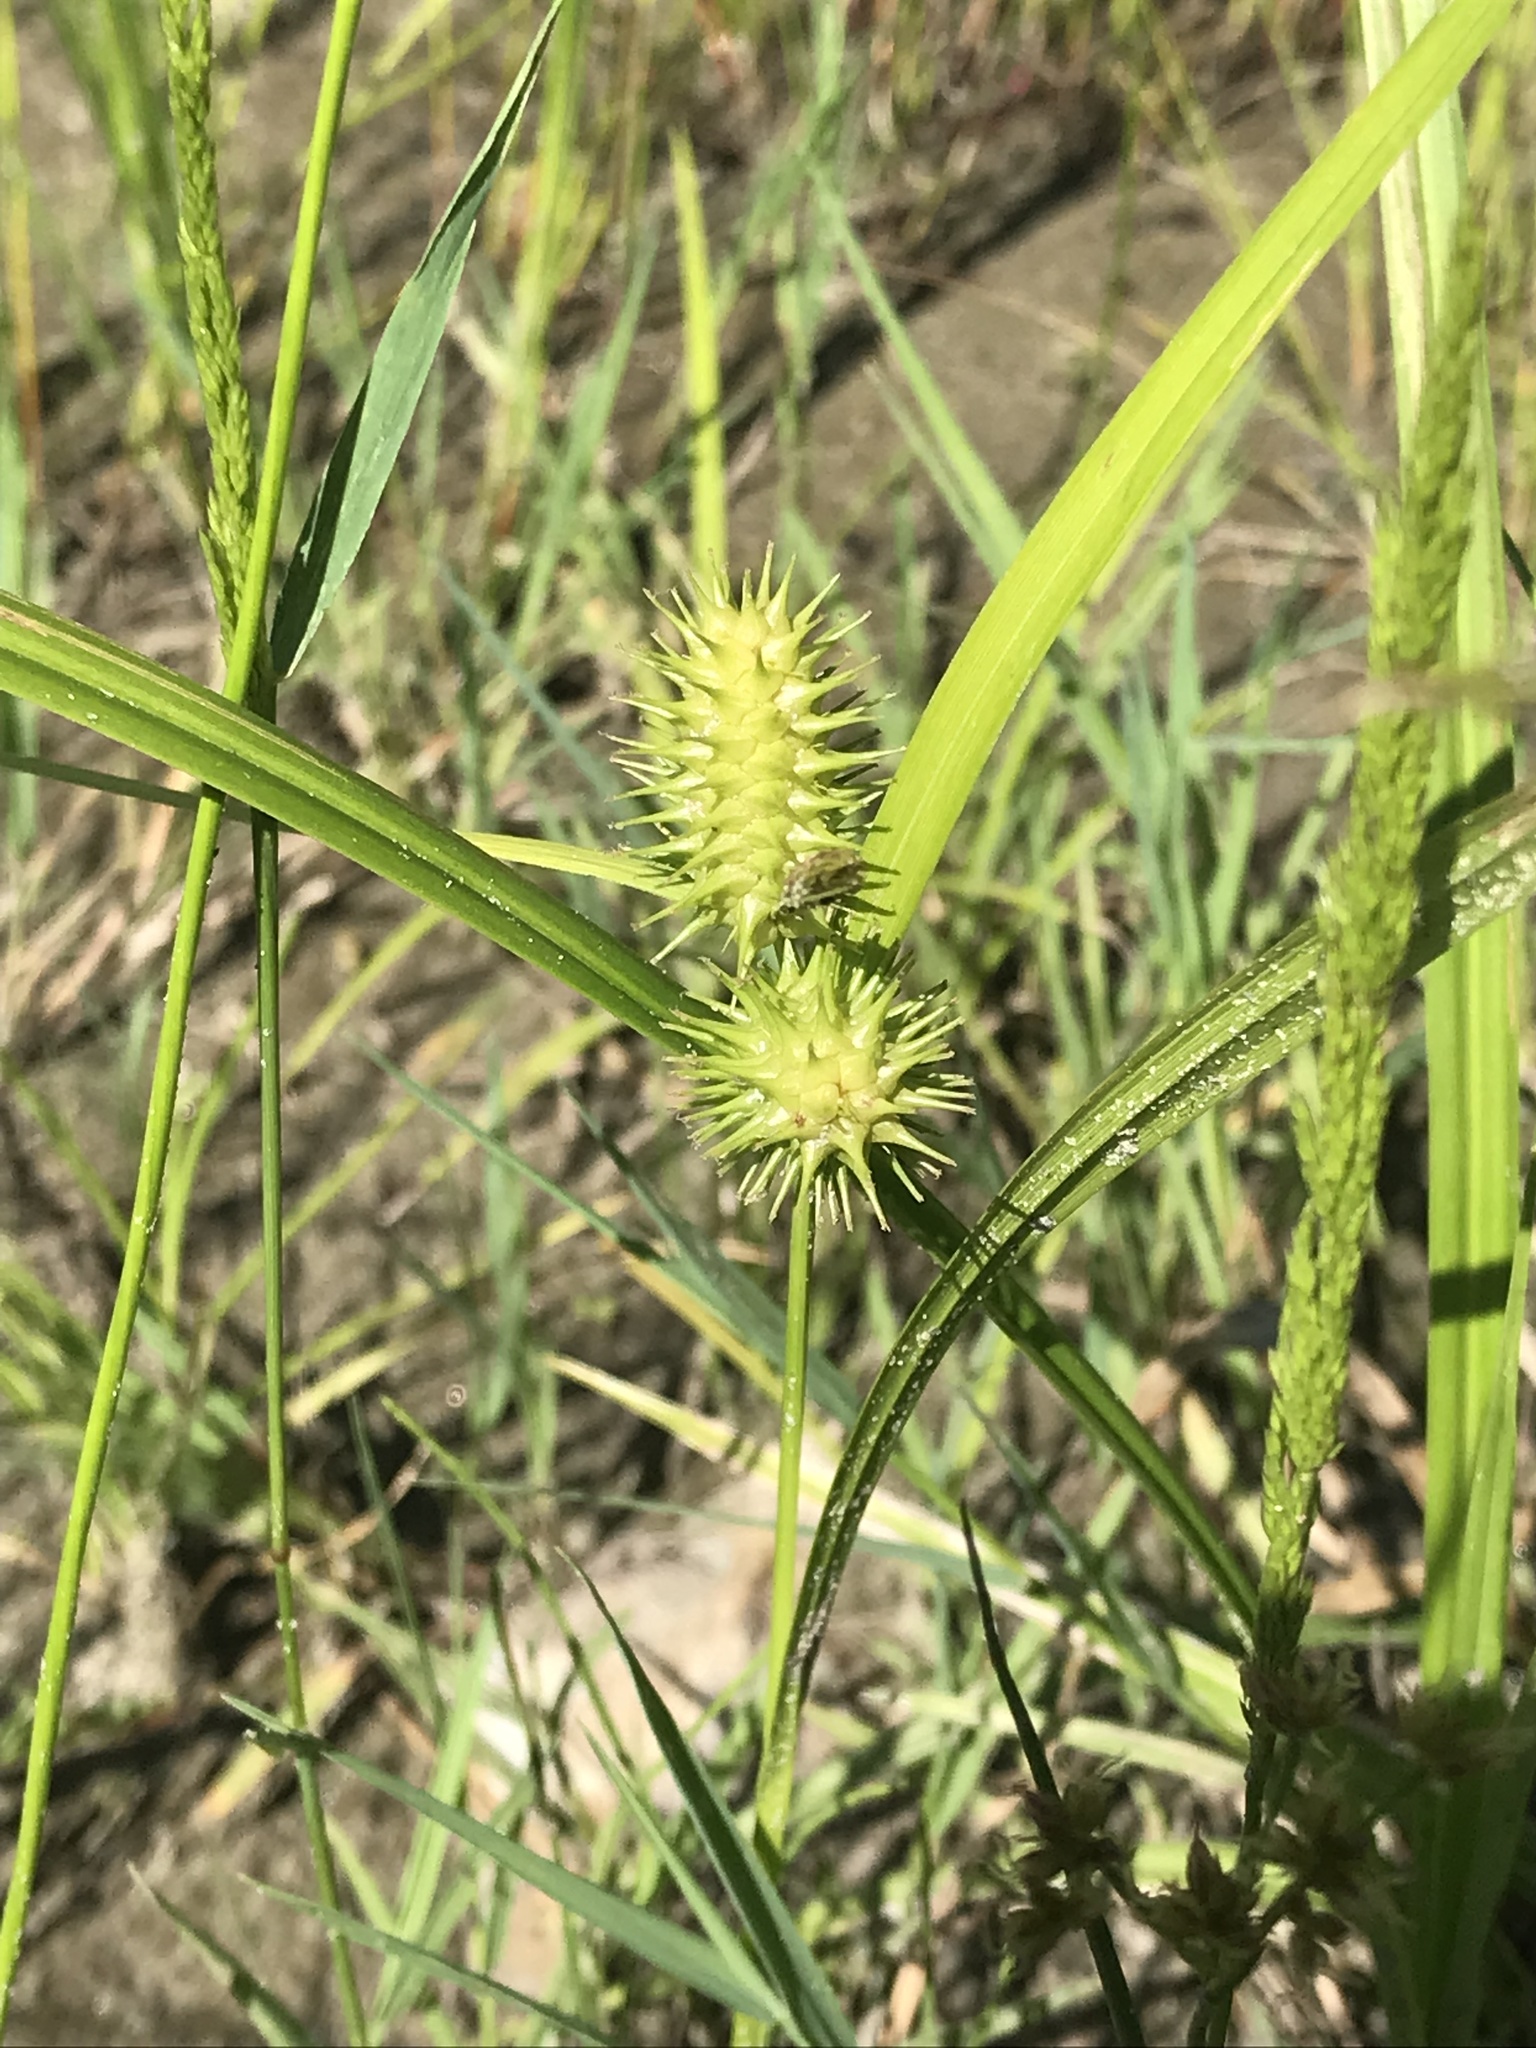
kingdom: Plantae
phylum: Tracheophyta
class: Liliopsida
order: Poales
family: Cyperaceae
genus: Carex
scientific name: Carex lurida
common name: Sallow sedge
